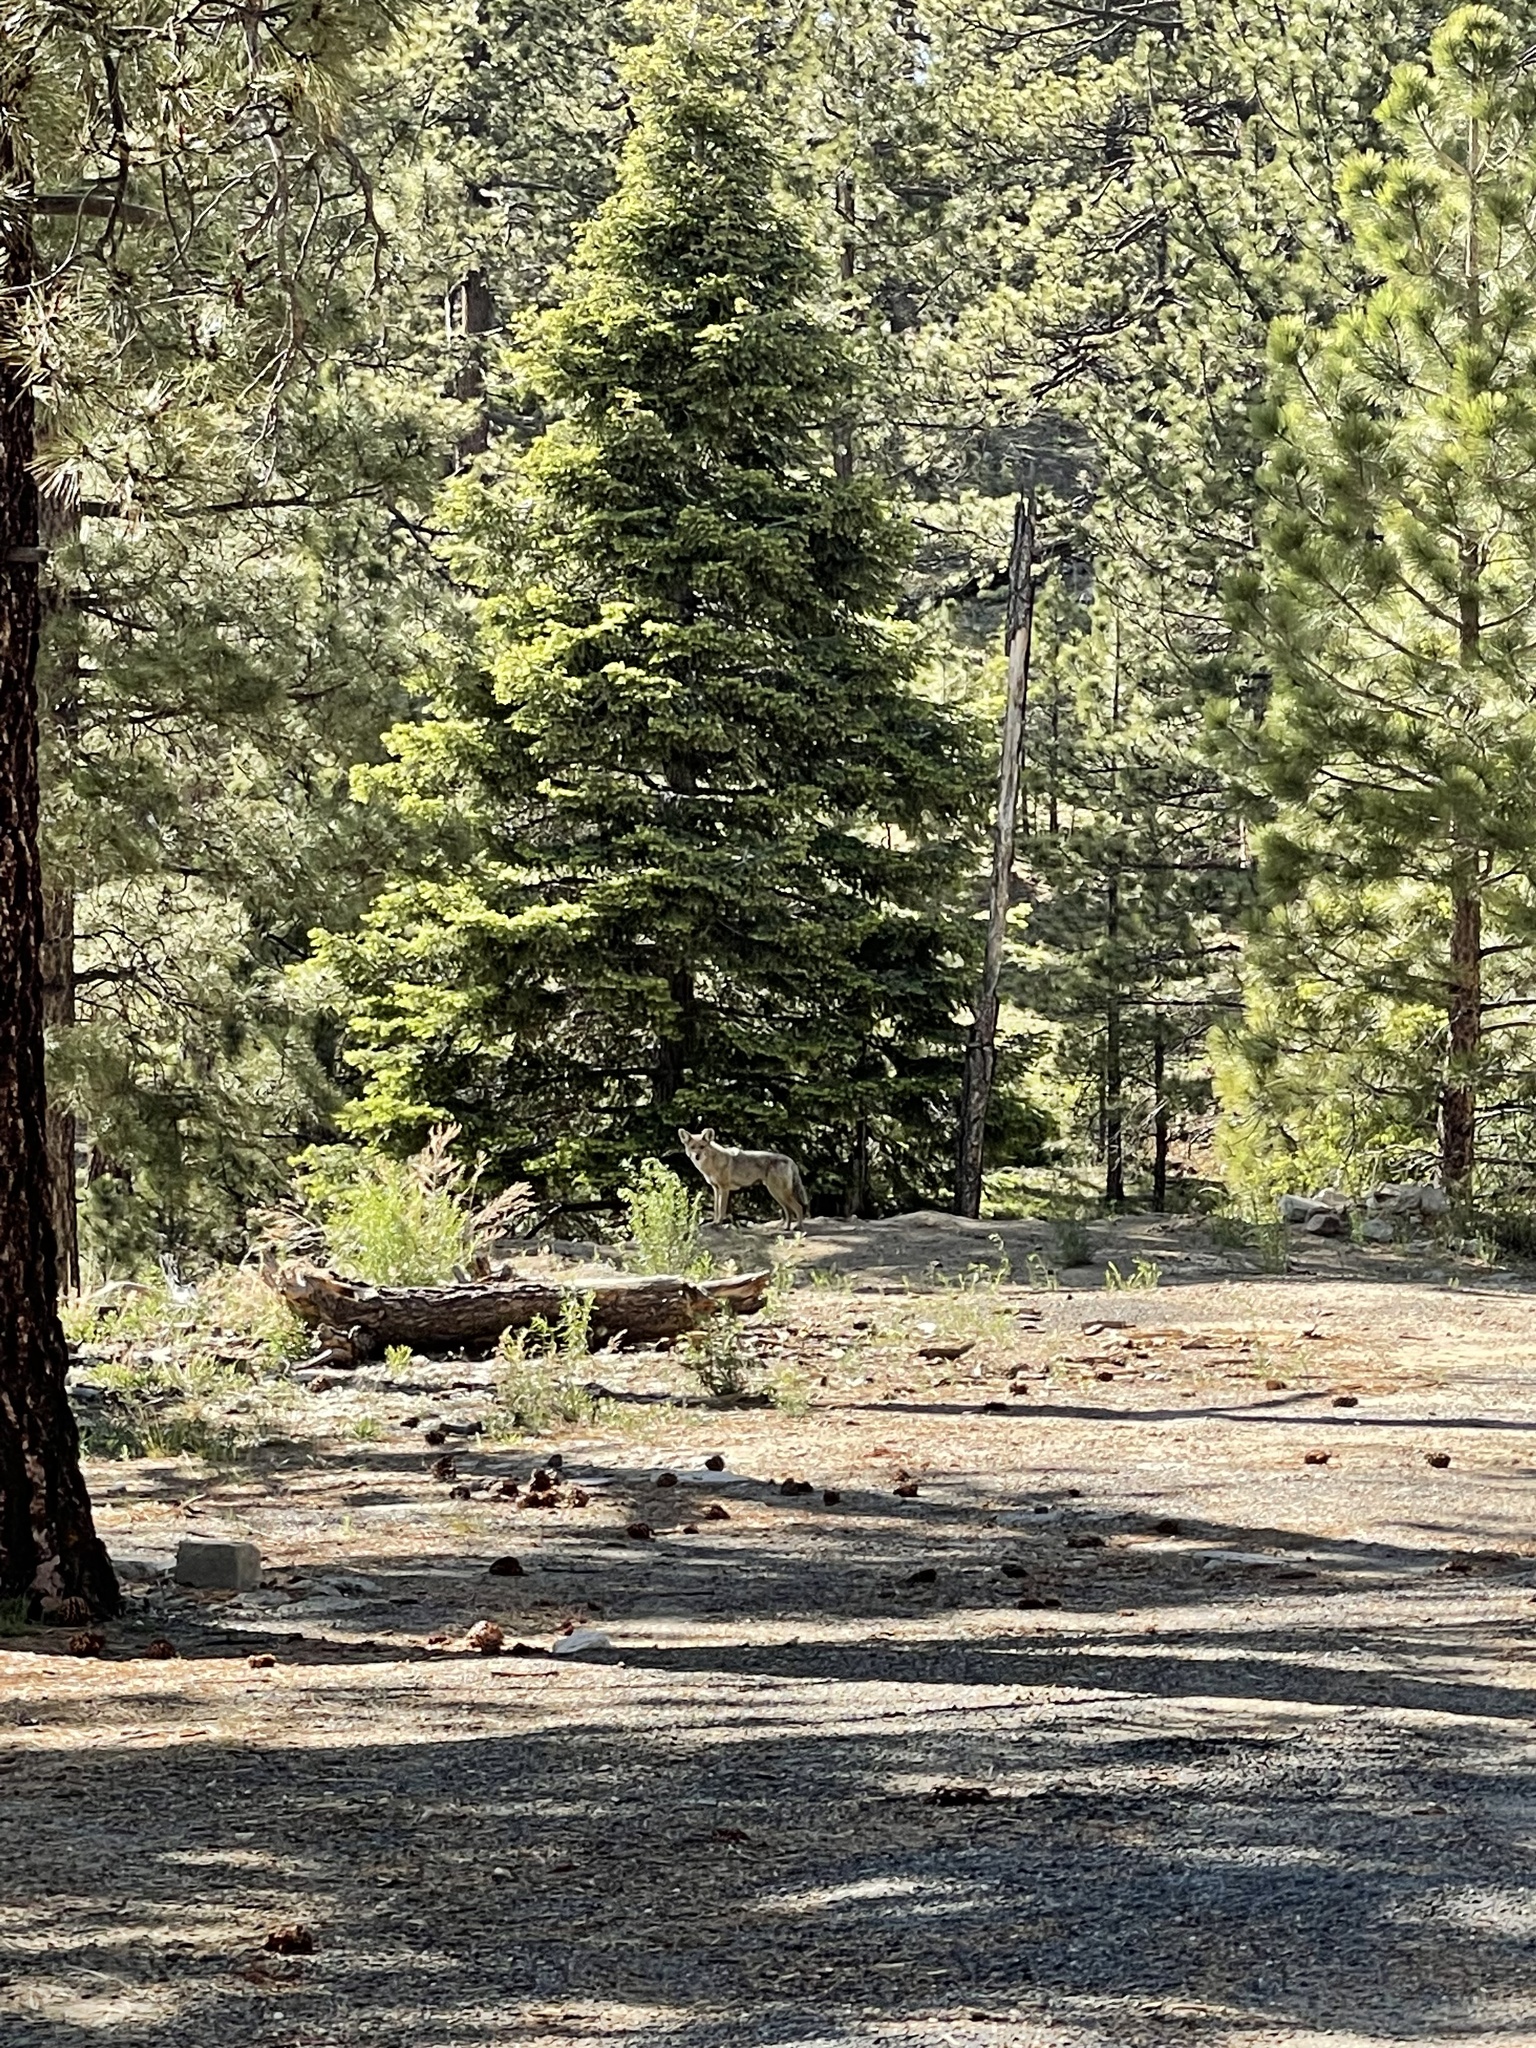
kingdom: Animalia
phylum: Chordata
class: Mammalia
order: Carnivora
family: Canidae
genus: Canis
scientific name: Canis latrans
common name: Coyote
